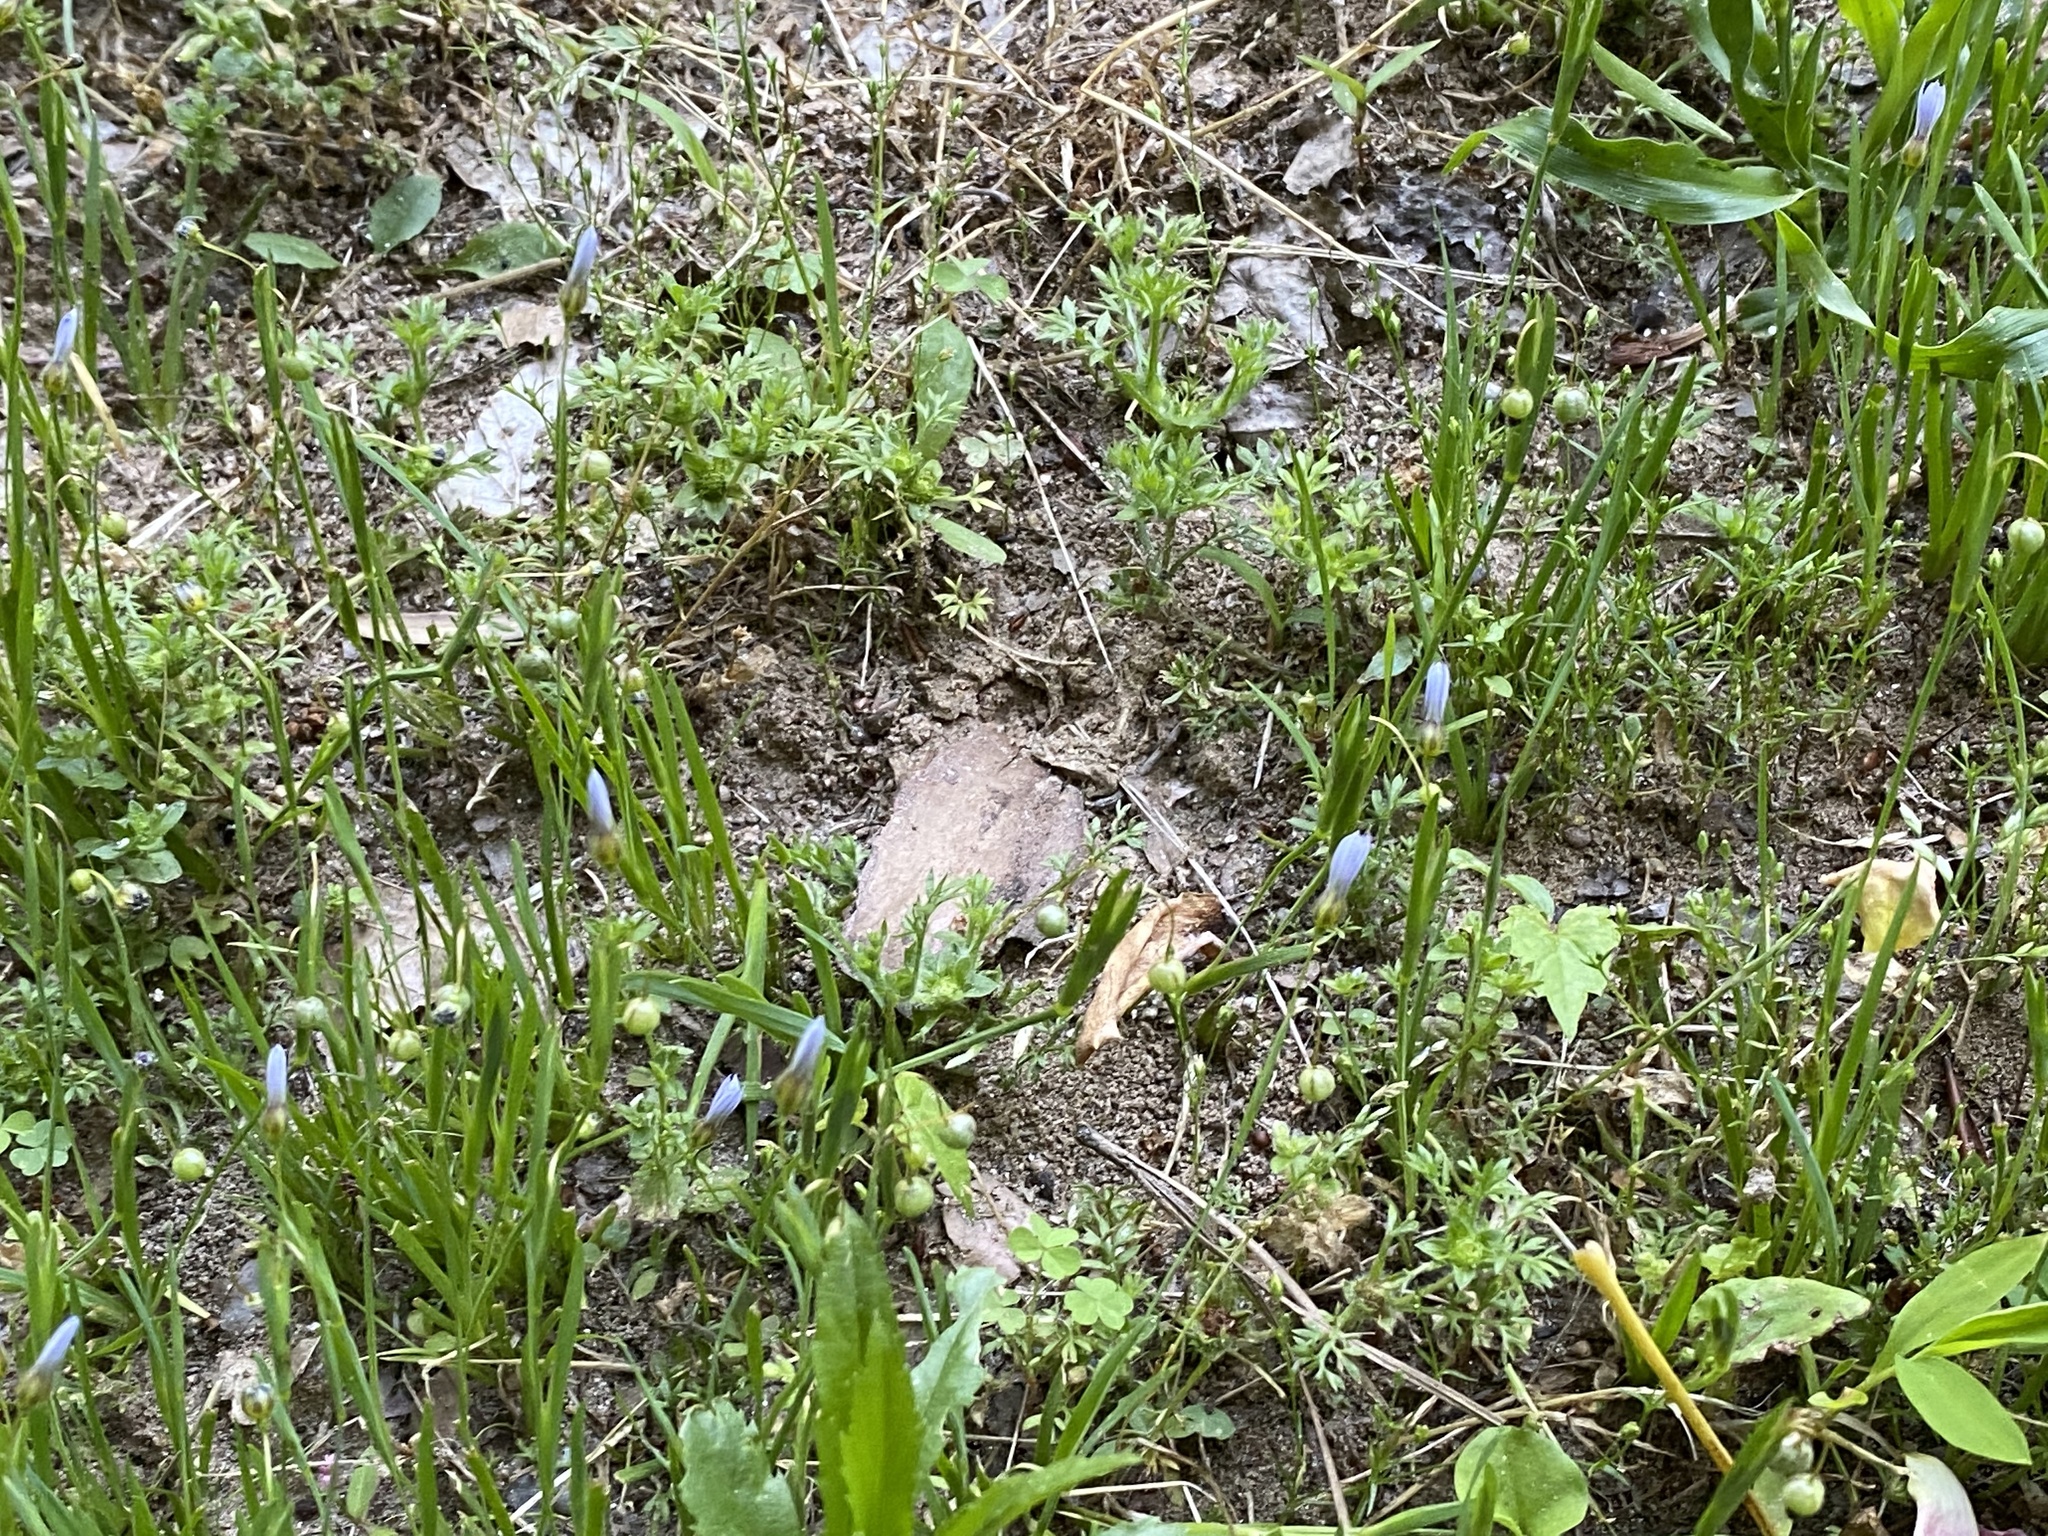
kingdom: Plantae
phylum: Tracheophyta
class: Liliopsida
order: Asparagales
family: Iridaceae
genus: Sisyrinchium
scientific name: Sisyrinchium micranthum
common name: Bermuda pigroot
